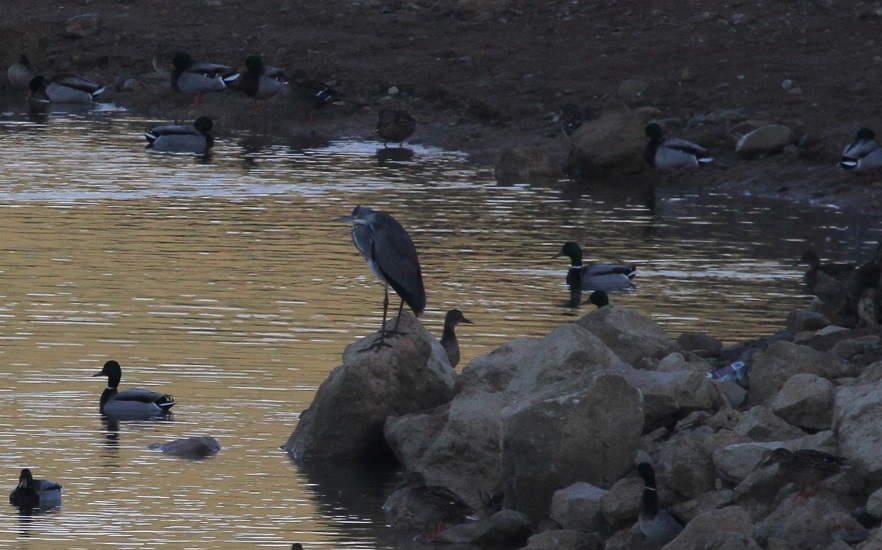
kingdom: Animalia
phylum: Chordata
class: Aves
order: Pelecaniformes
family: Ardeidae
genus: Ardea
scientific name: Ardea cinerea
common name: Grey heron
